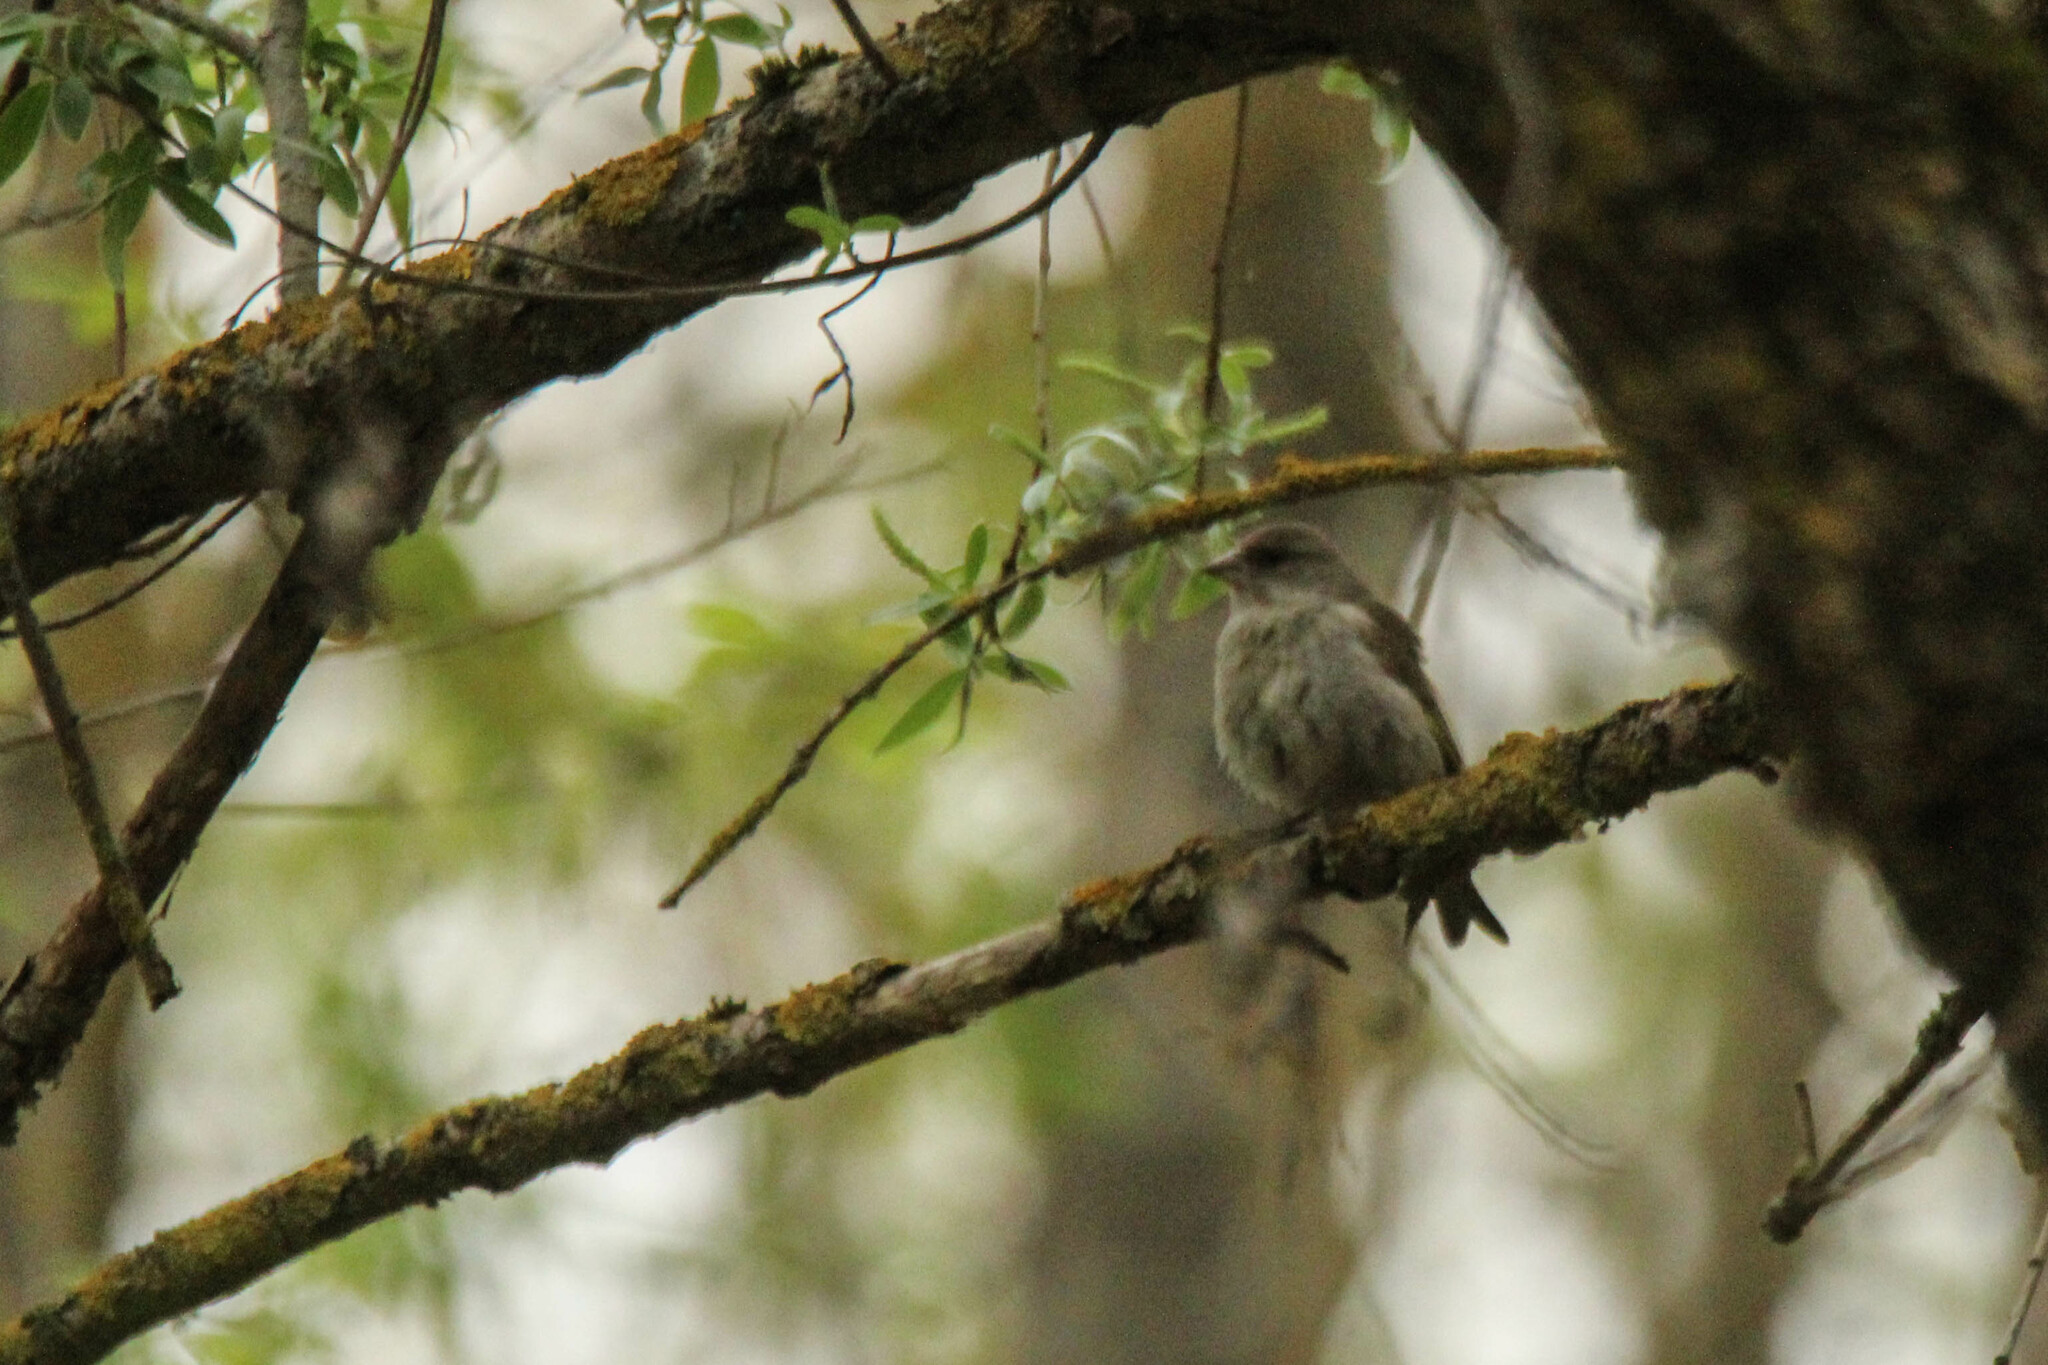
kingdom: Plantae
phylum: Tracheophyta
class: Liliopsida
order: Poales
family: Poaceae
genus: Chloris
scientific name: Chloris chloris
